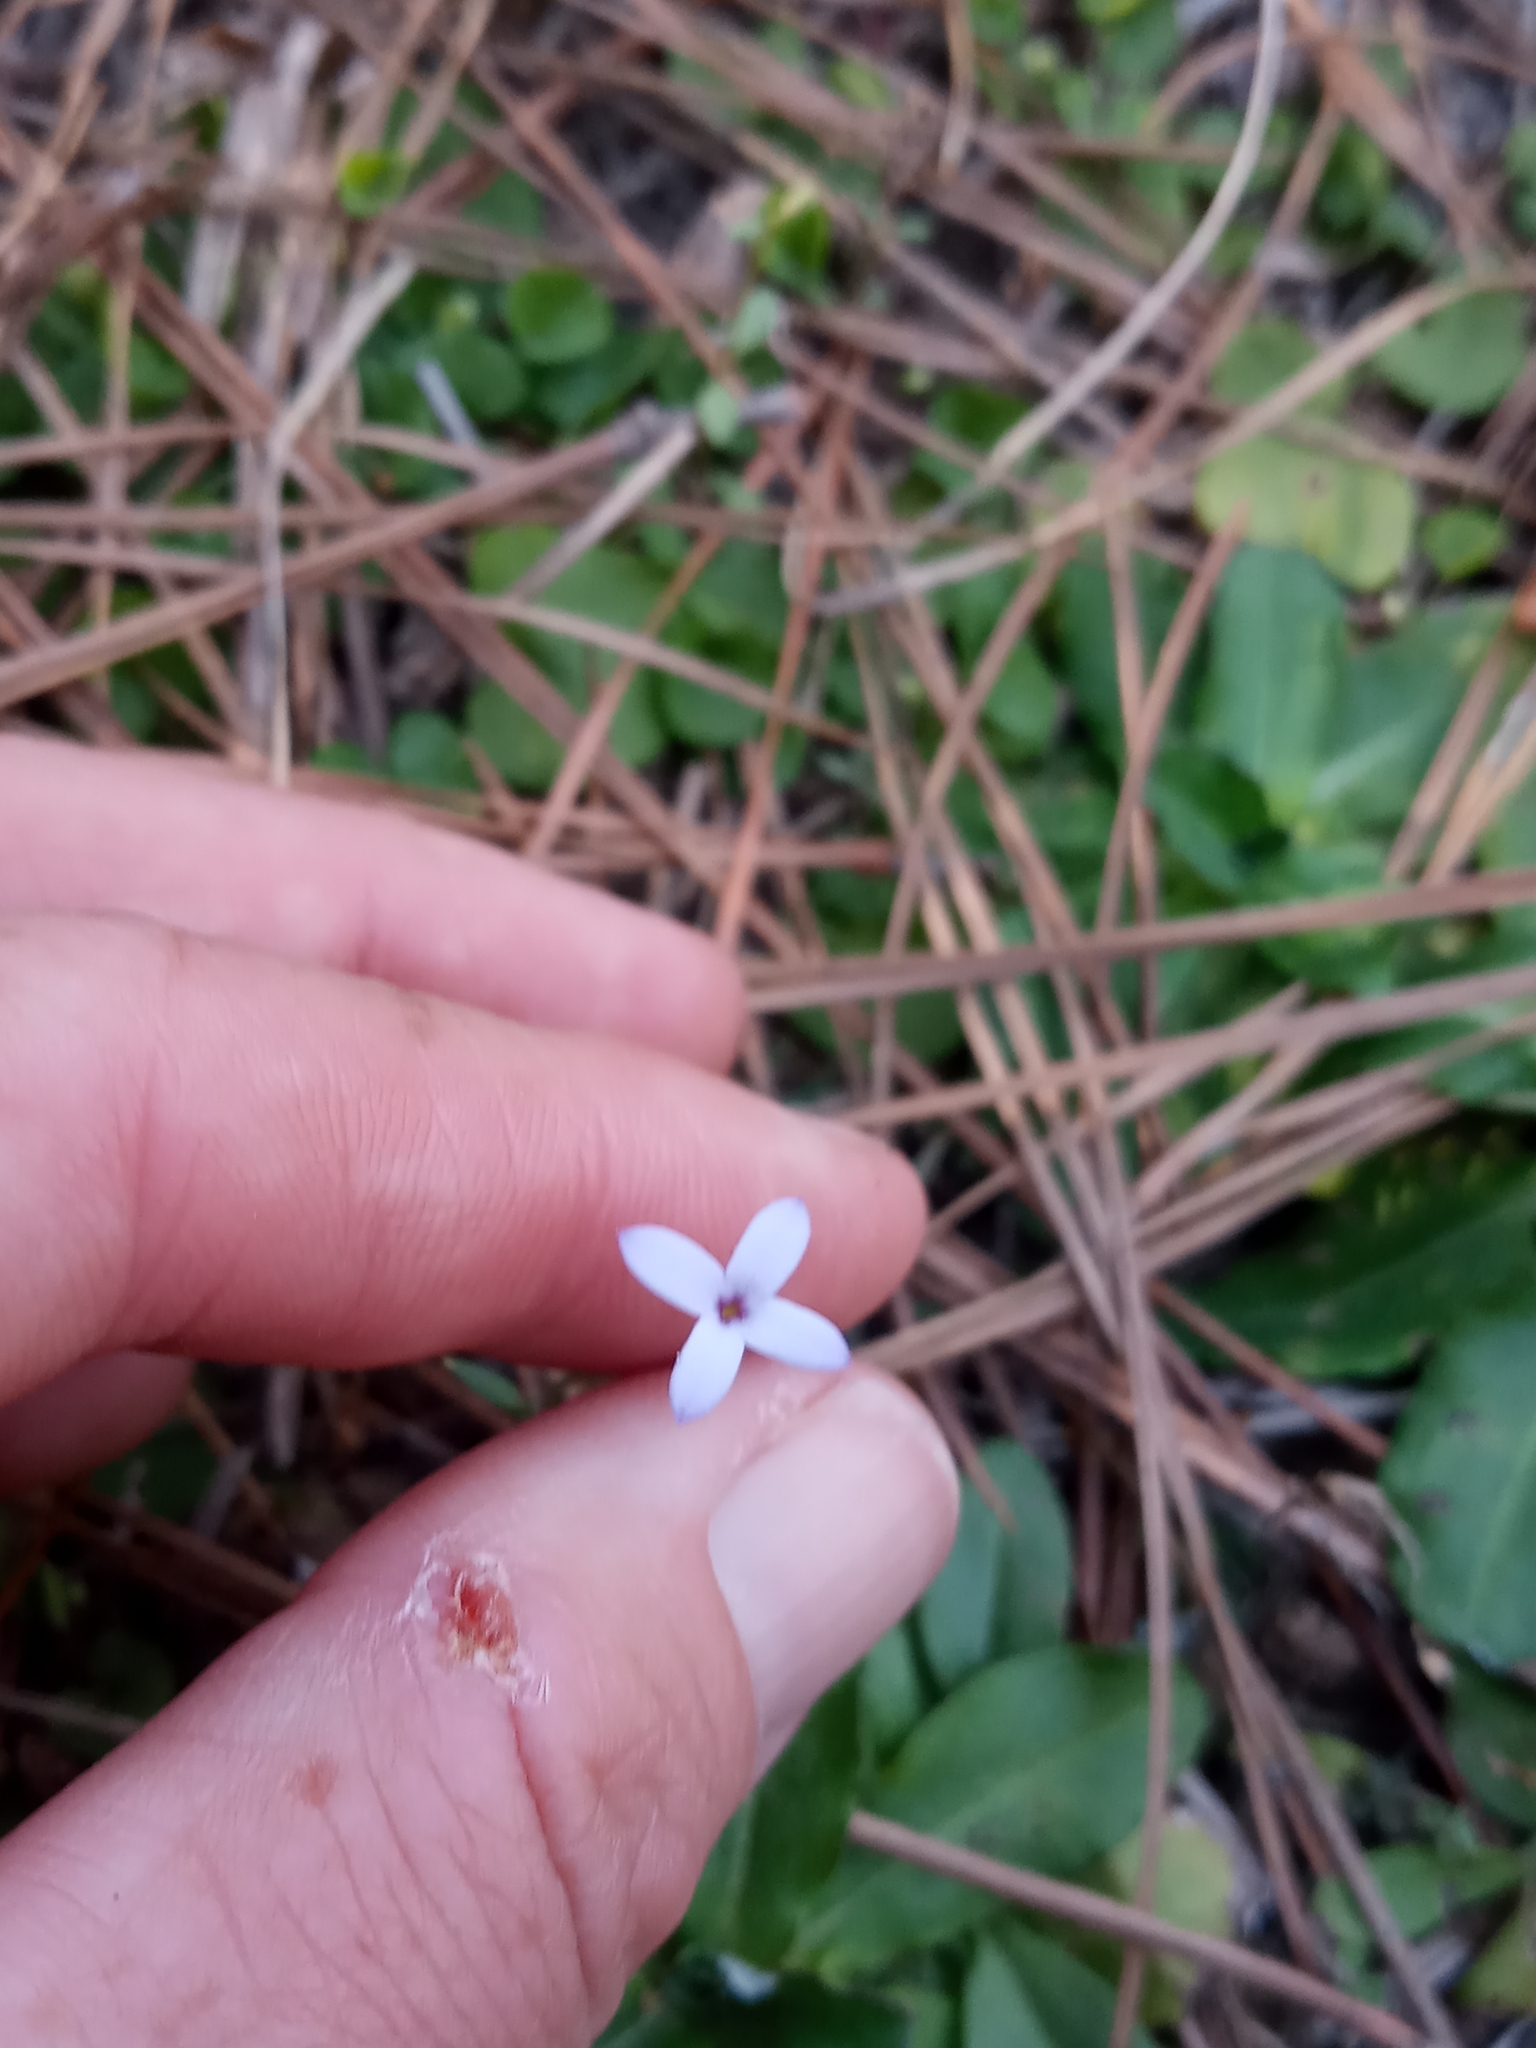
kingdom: Plantae
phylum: Tracheophyta
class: Magnoliopsida
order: Gentianales
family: Rubiaceae
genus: Houstonia
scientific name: Houstonia pusilla
